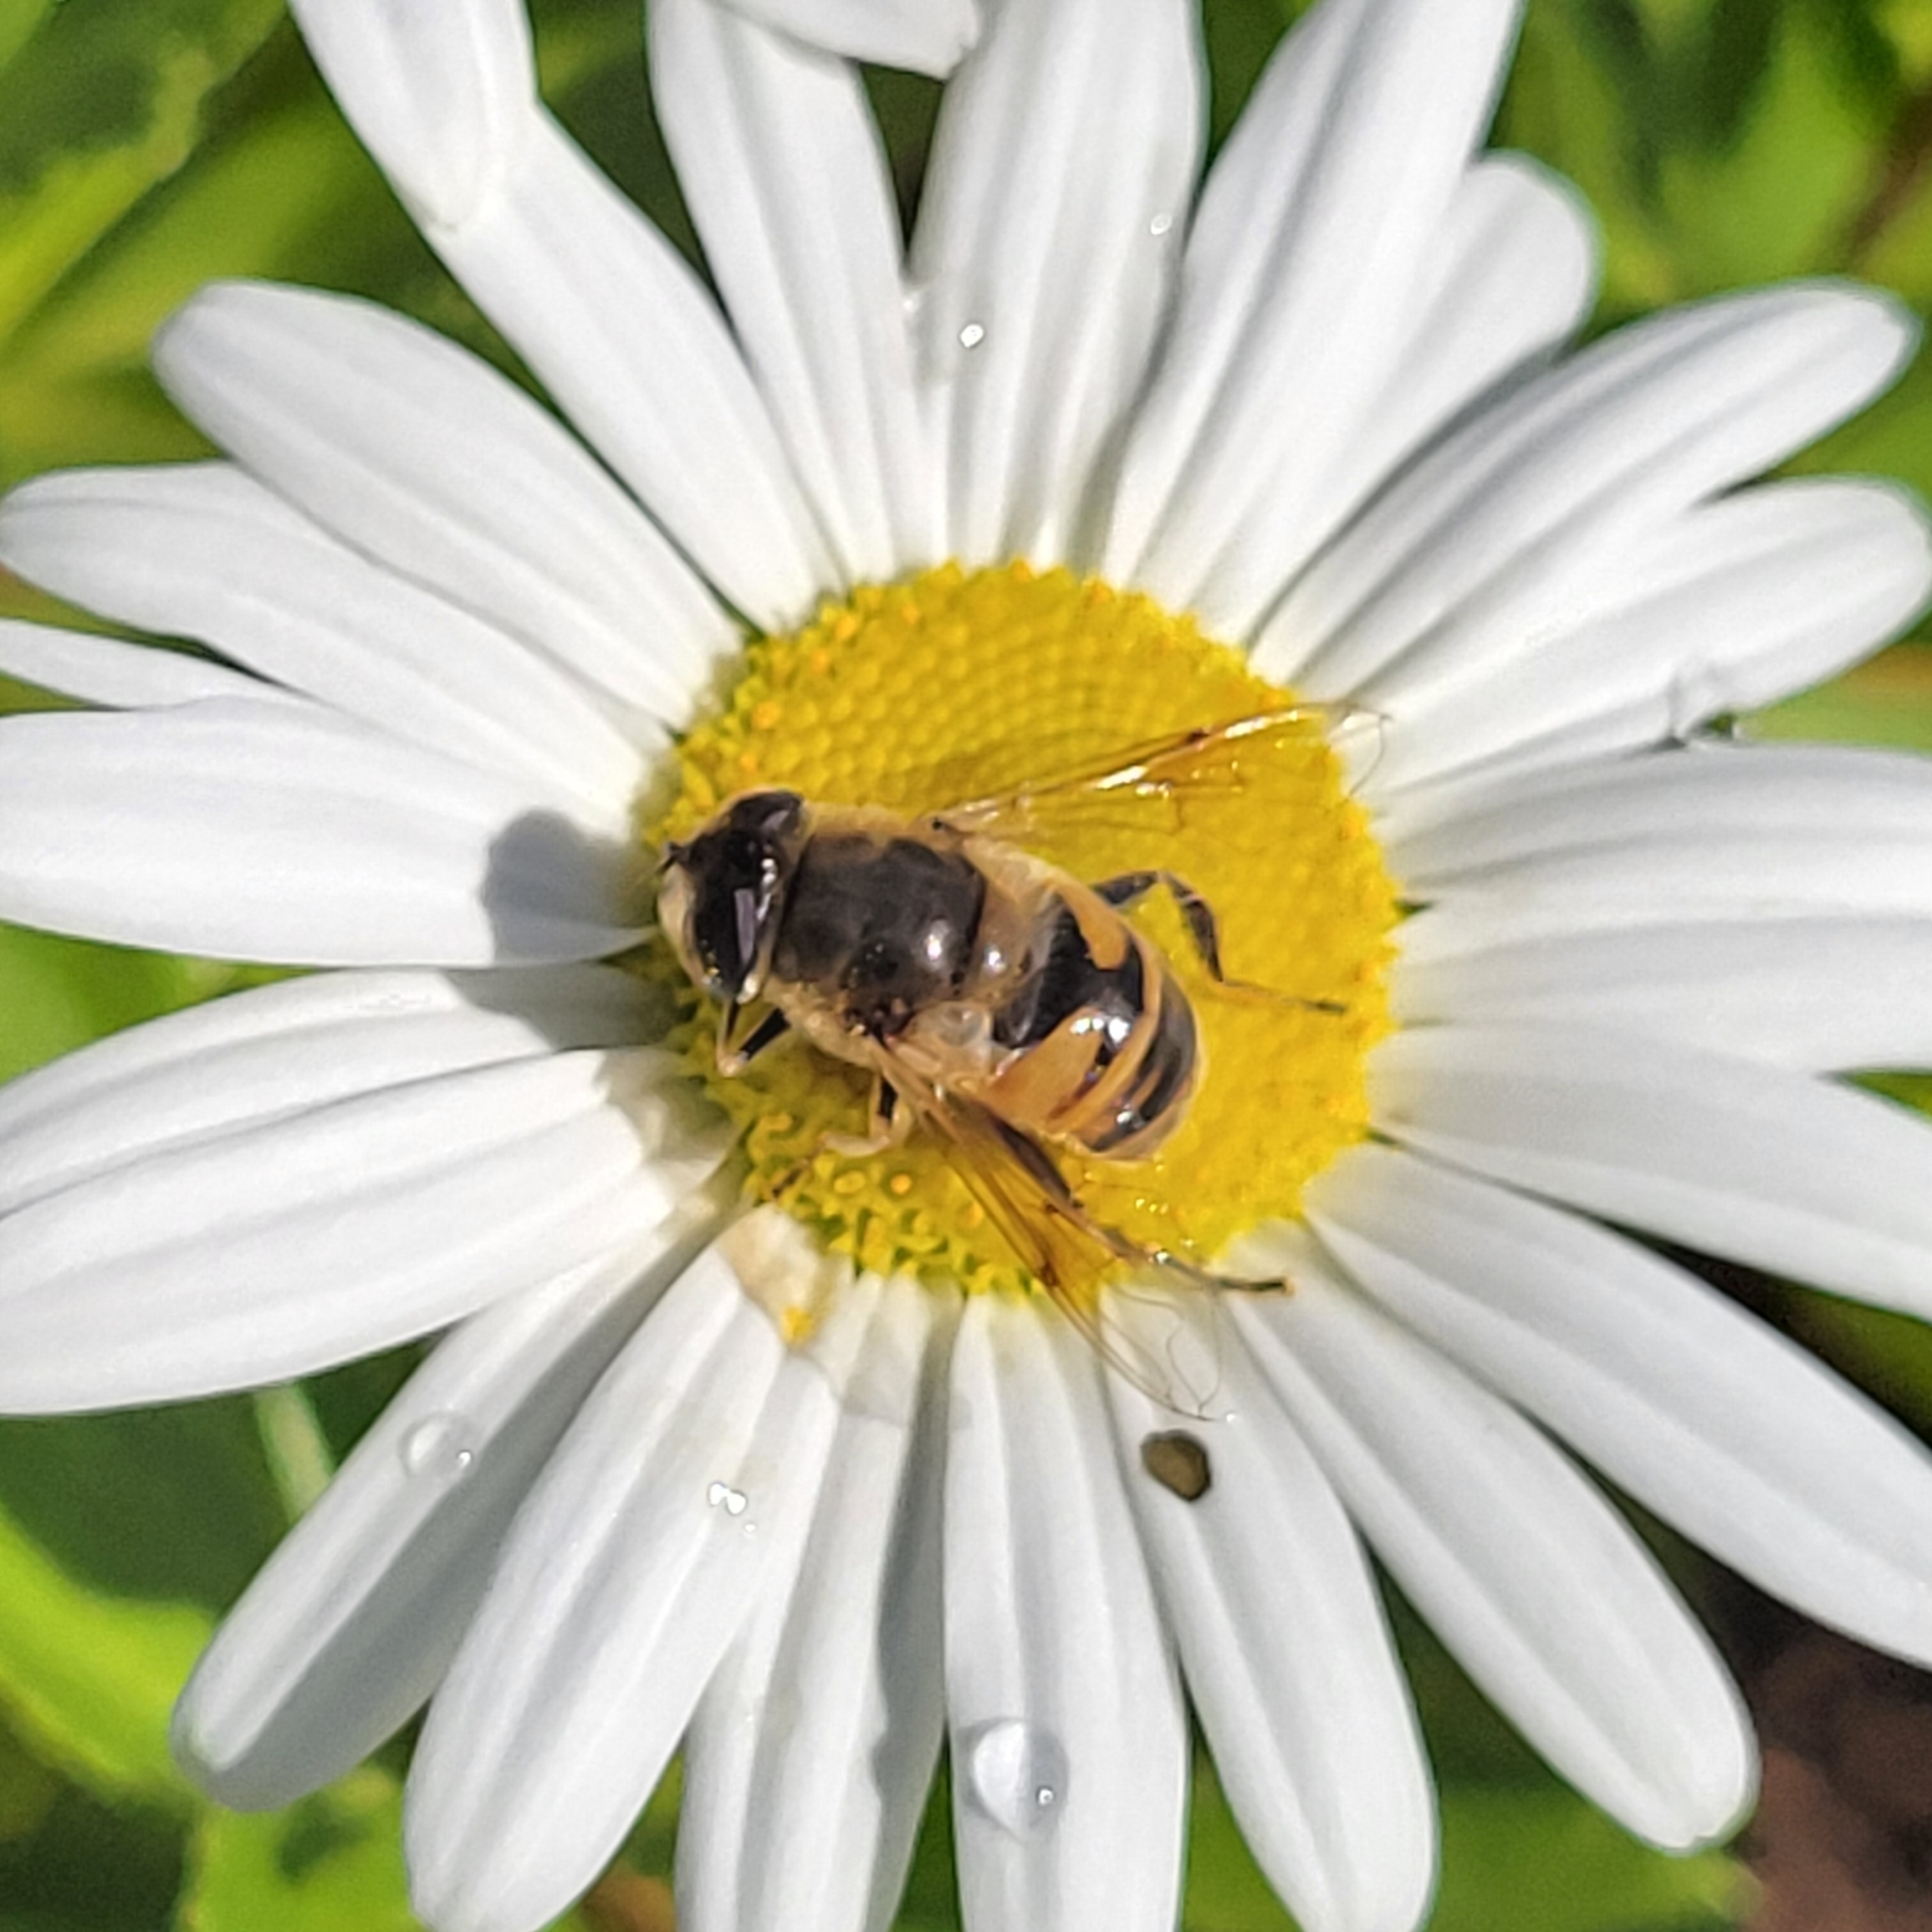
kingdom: Animalia
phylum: Arthropoda
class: Insecta
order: Diptera
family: Syrphidae
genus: Eristalis
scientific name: Eristalis tenax
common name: Drone fly
